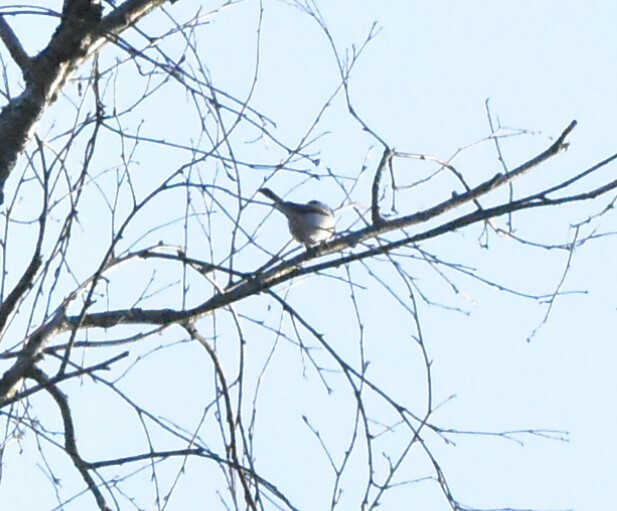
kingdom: Animalia
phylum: Chordata
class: Aves
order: Passeriformes
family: Paridae
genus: Poecile
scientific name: Poecile montanus
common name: Willow tit
